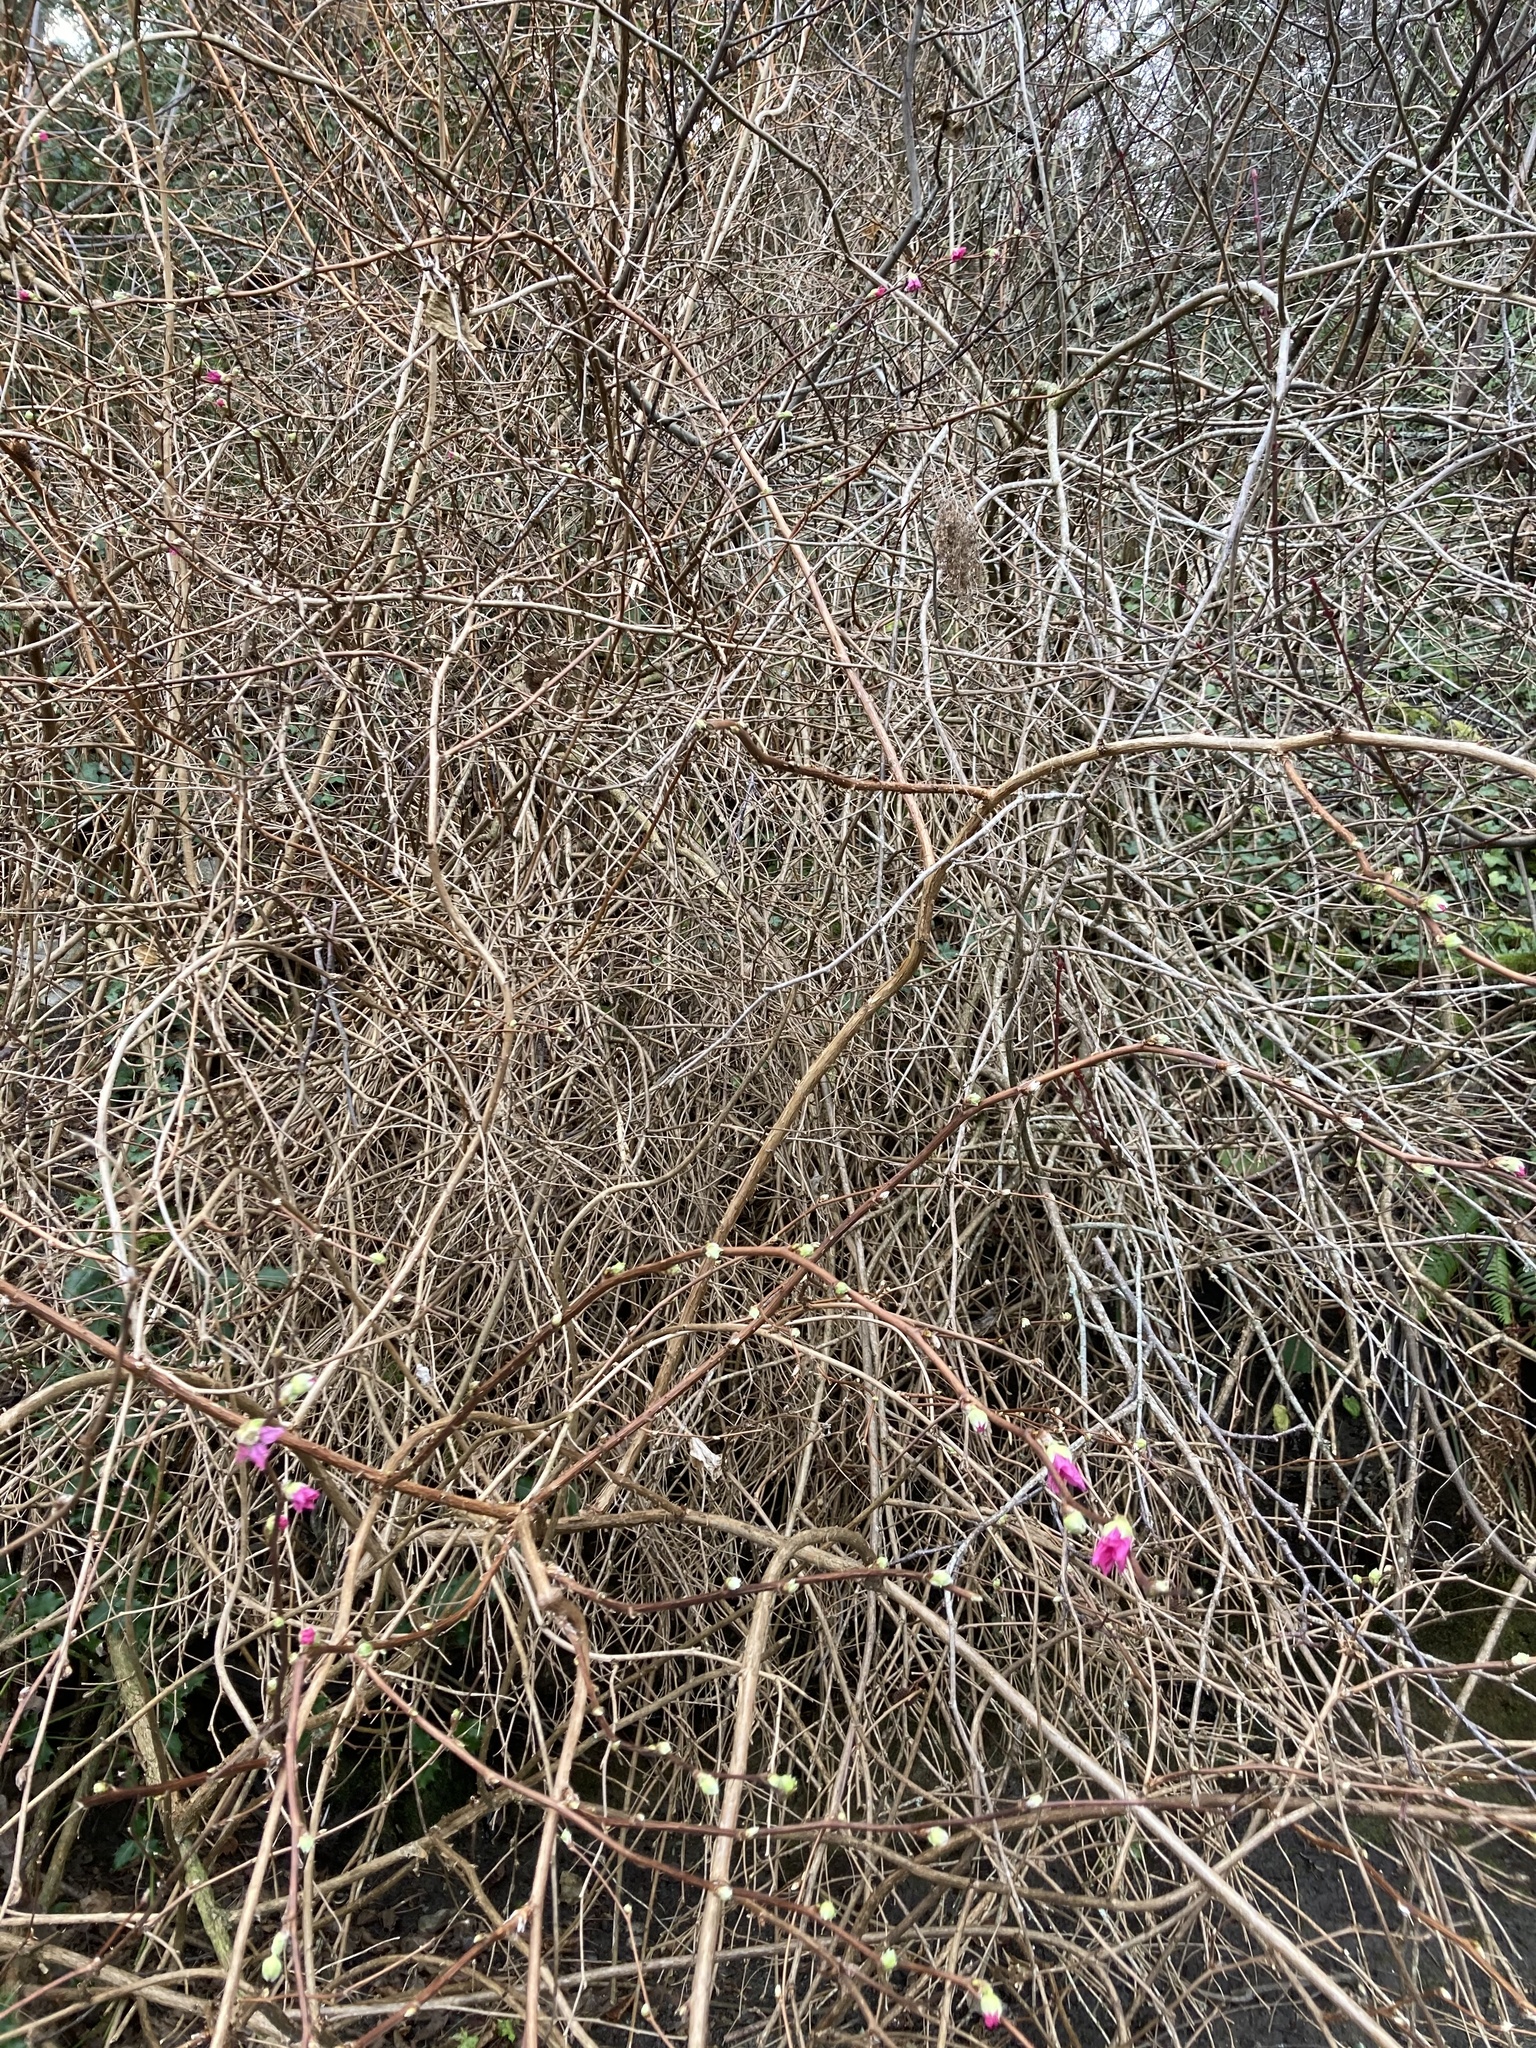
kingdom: Plantae
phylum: Tracheophyta
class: Magnoliopsida
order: Rosales
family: Rosaceae
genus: Rubus
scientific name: Rubus spectabilis
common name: Salmonberry
